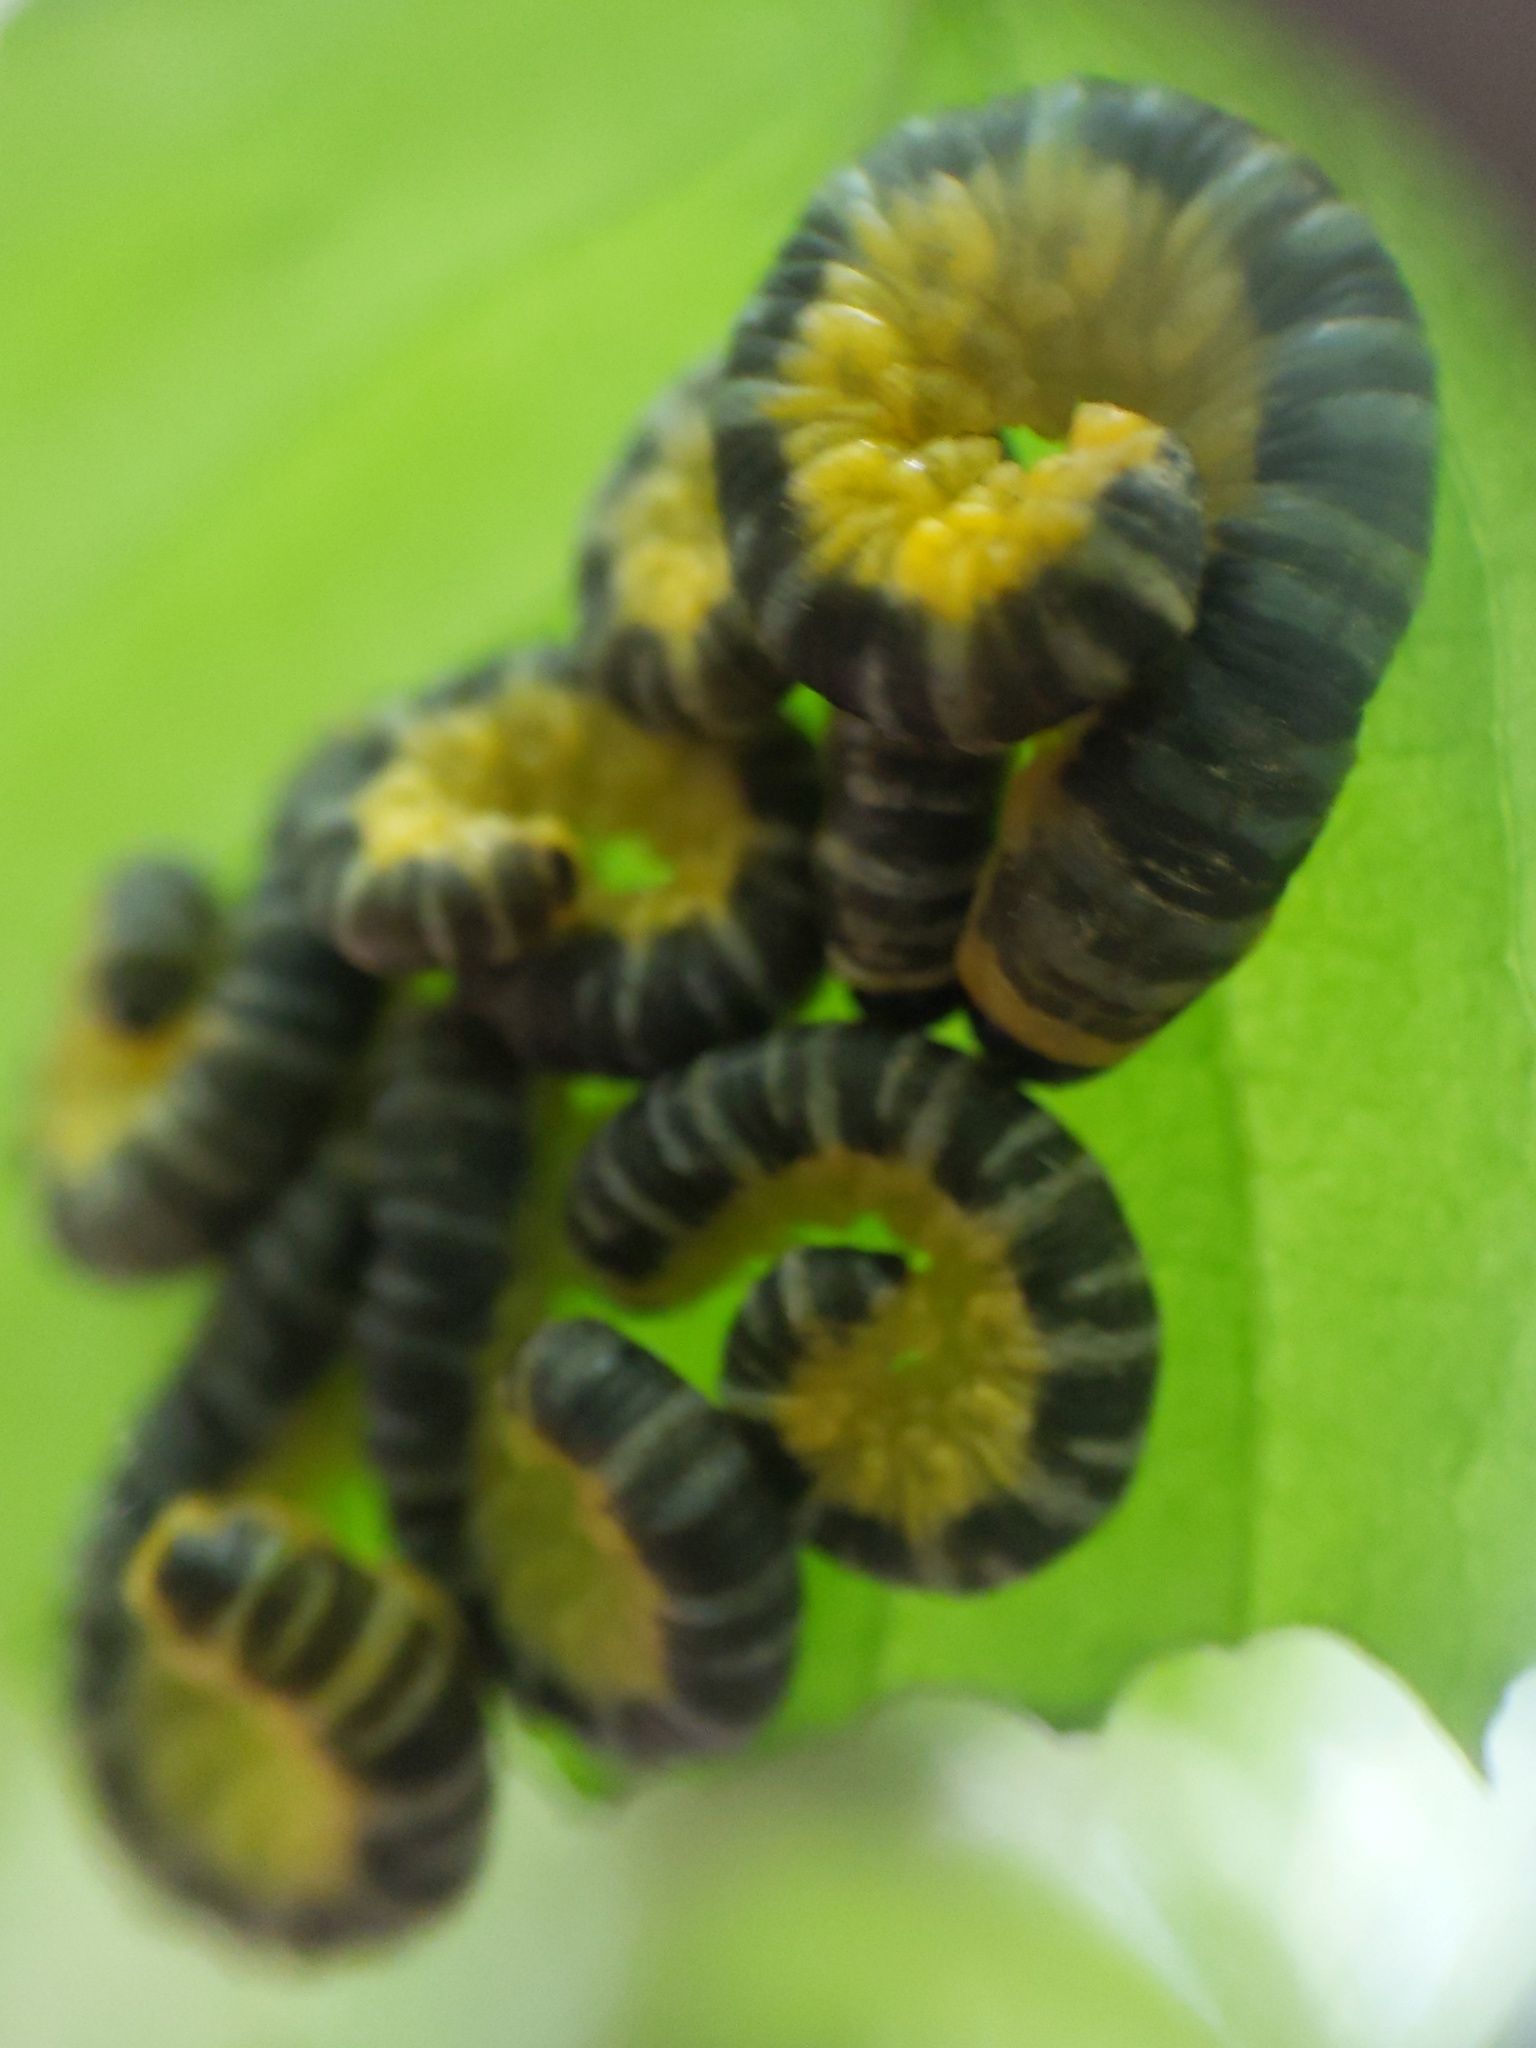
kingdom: Animalia
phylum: Arthropoda
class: Insecta
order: Hymenoptera
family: Tenthredinidae
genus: Macremphytus
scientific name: Macremphytus
